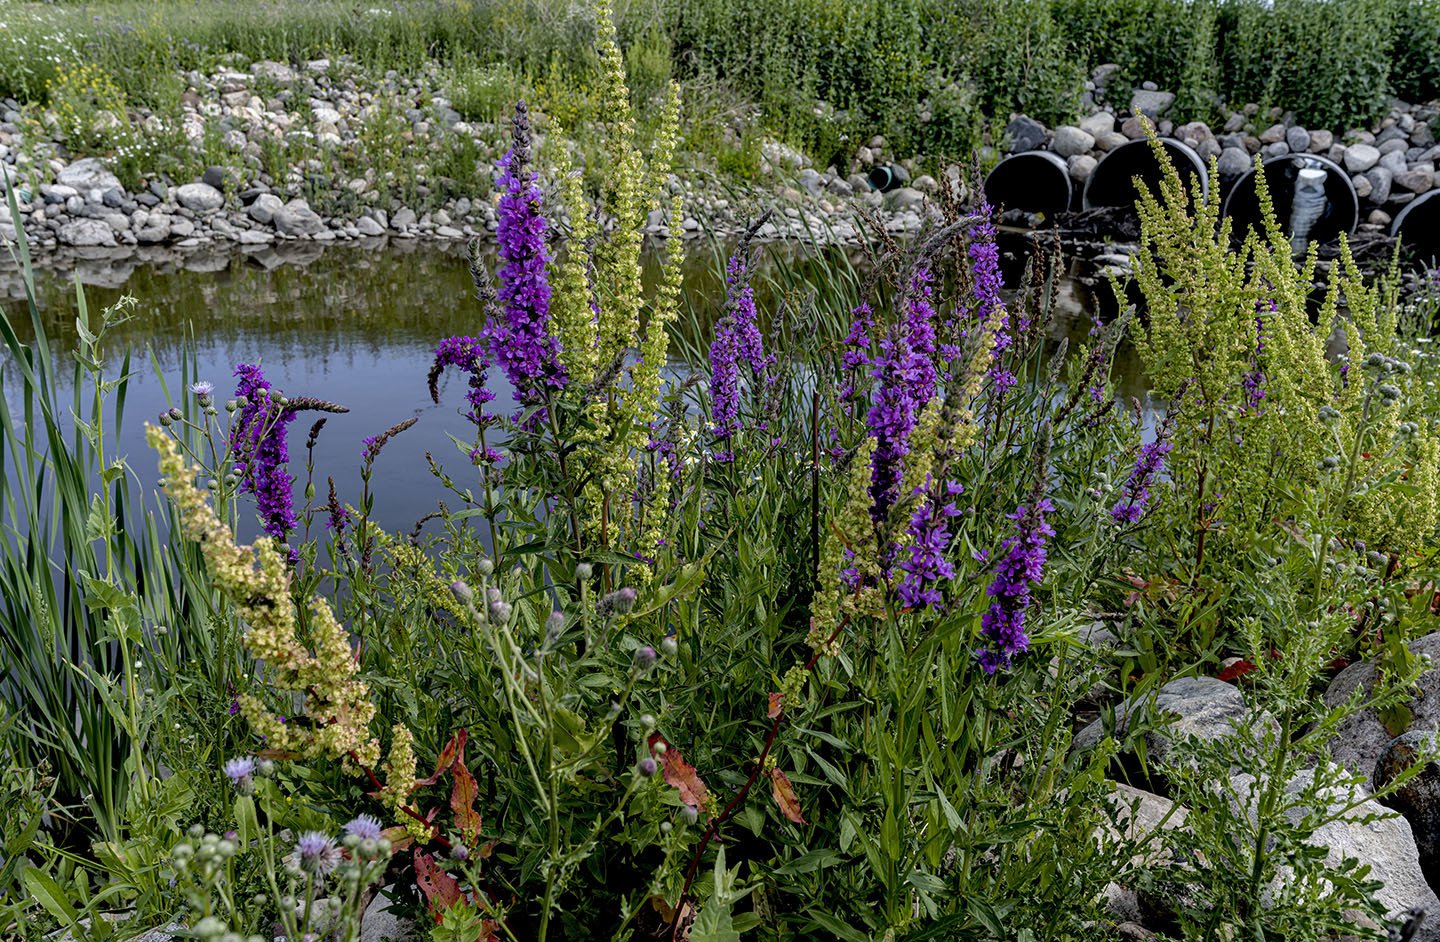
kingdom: Plantae
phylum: Tracheophyta
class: Magnoliopsida
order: Myrtales
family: Lythraceae
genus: Lythrum
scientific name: Lythrum salicaria
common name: Purple loosestrife
